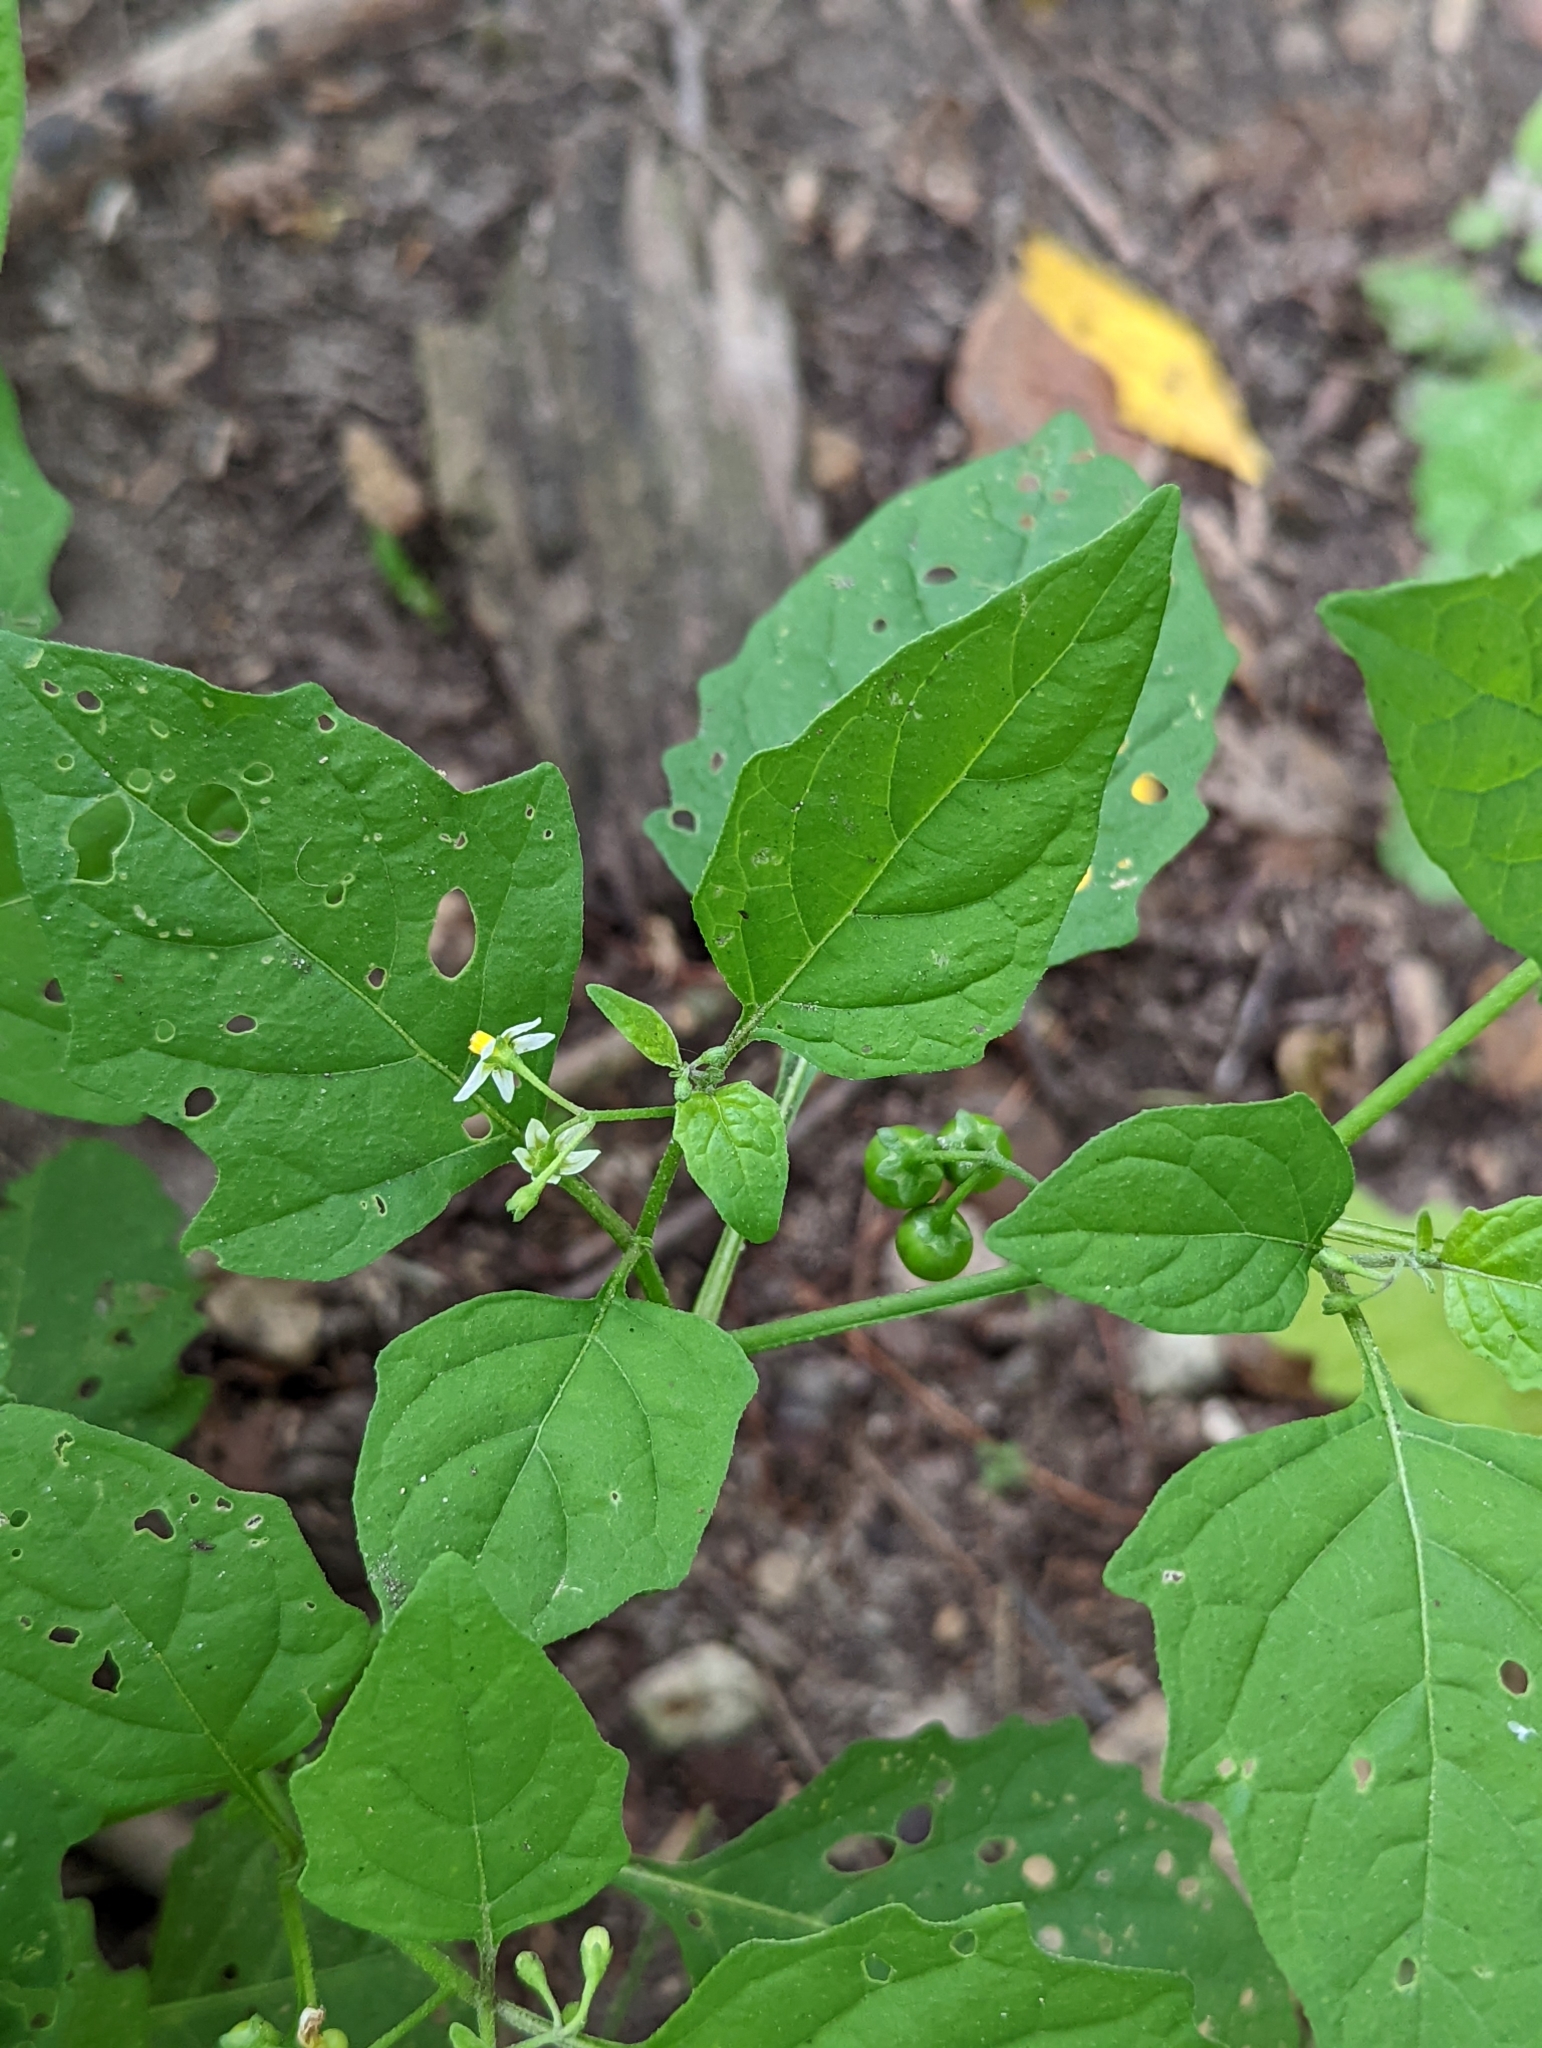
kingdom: Plantae
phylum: Tracheophyta
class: Magnoliopsida
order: Solanales
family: Solanaceae
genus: Solanum
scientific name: Solanum emulans
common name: Eastern black nightshade
